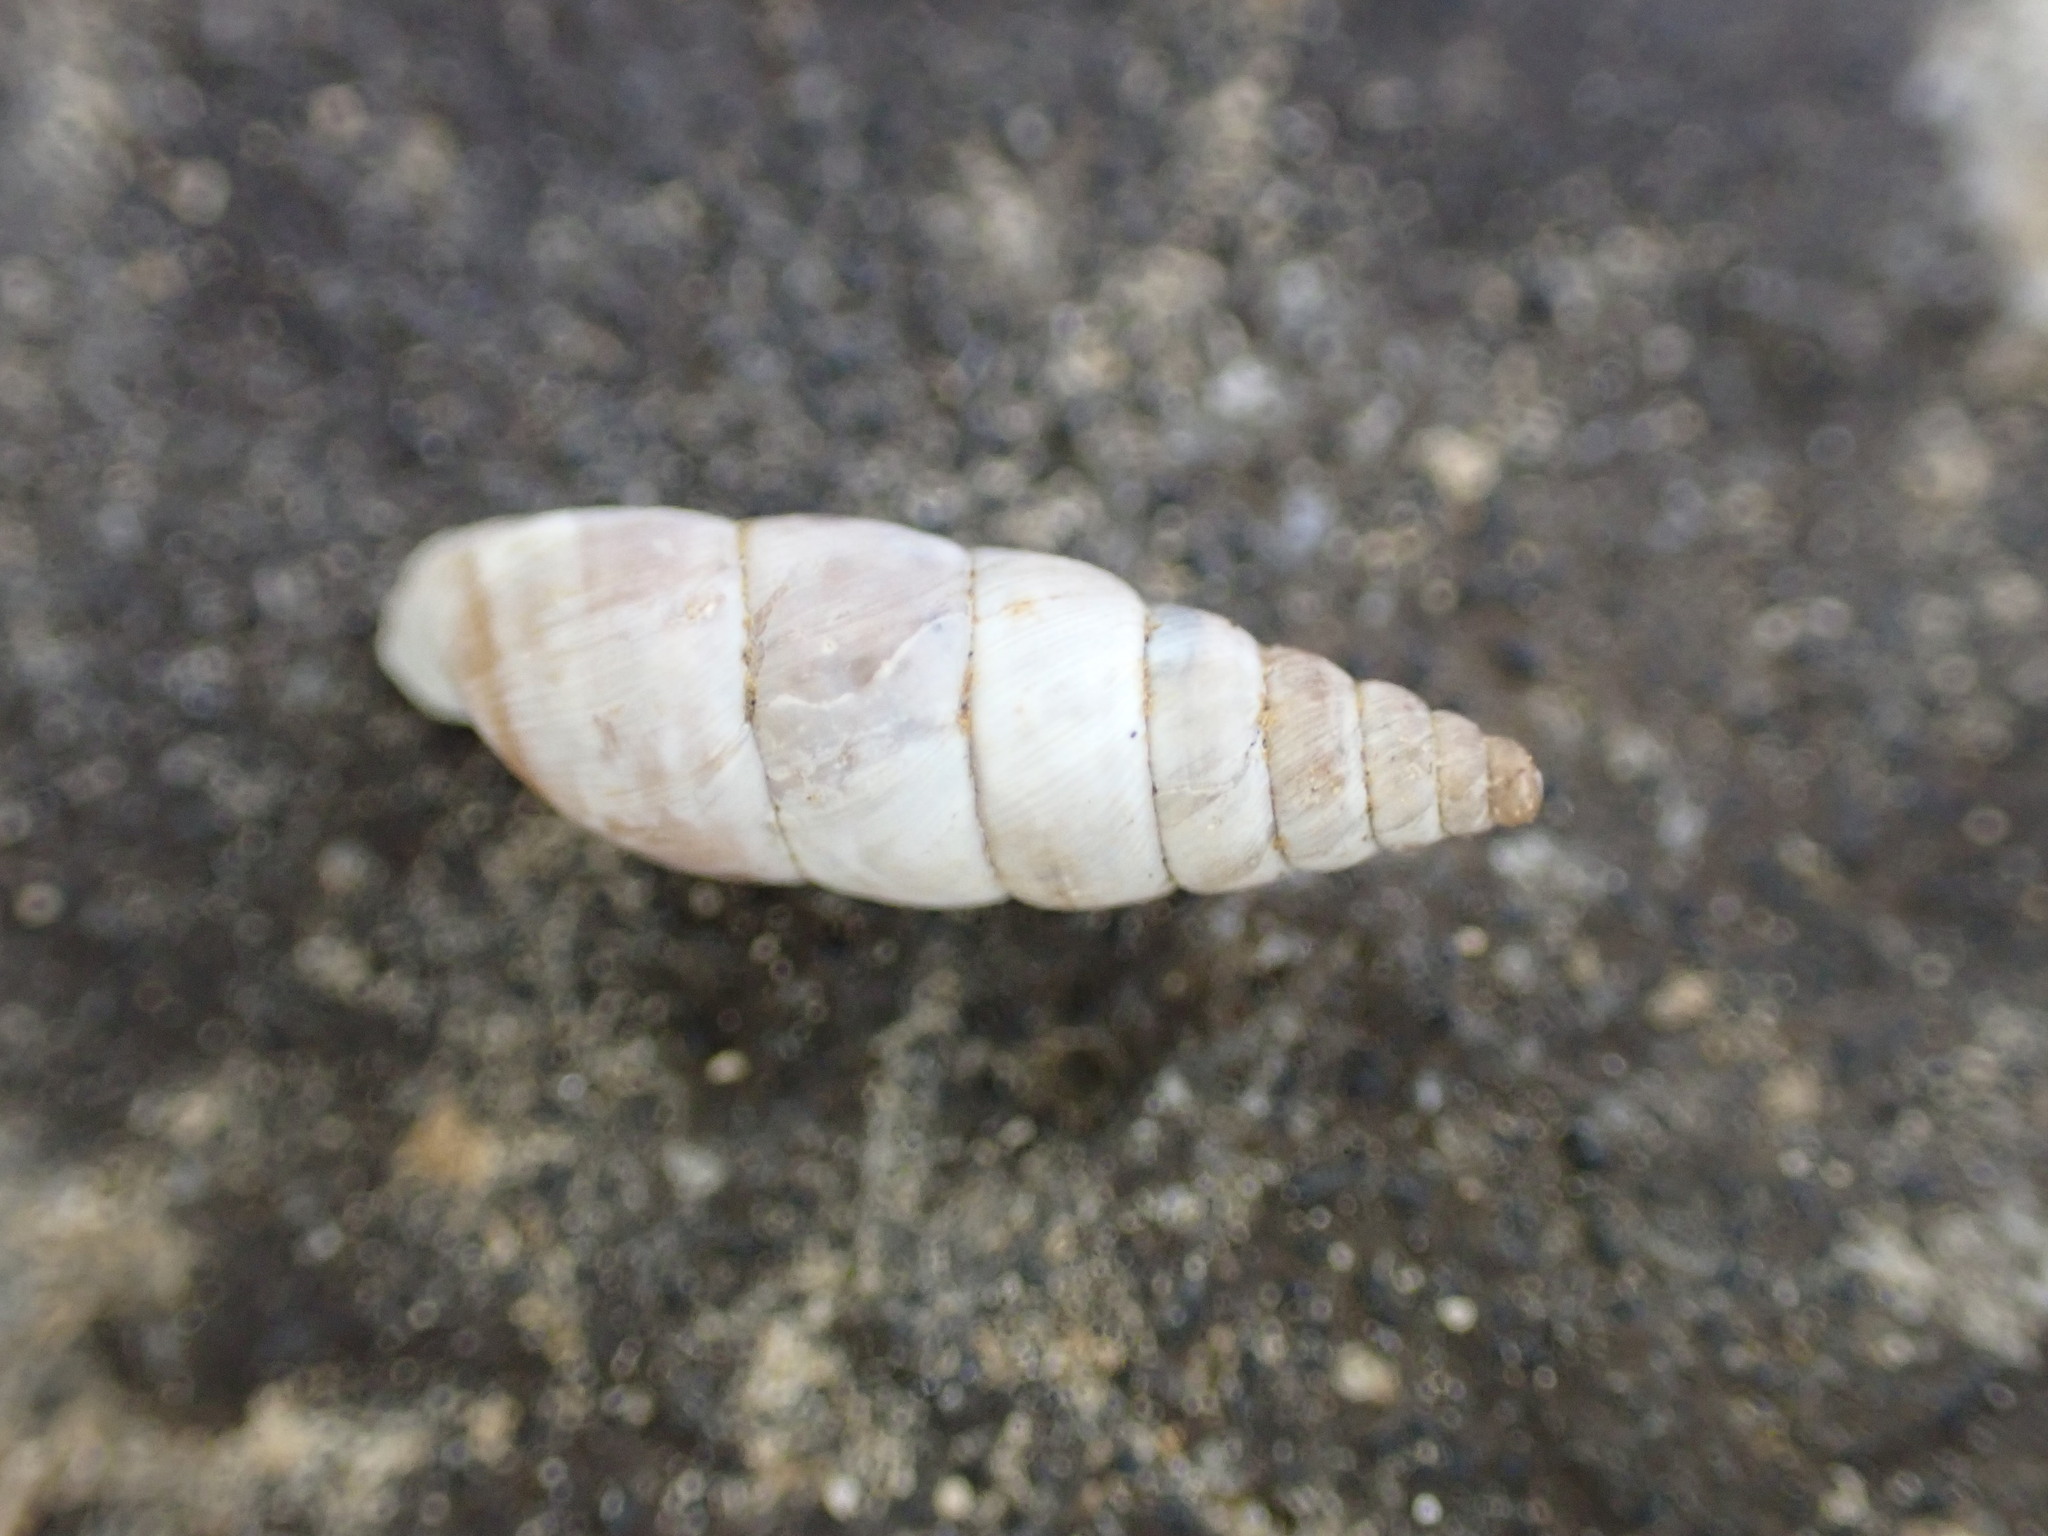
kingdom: Animalia
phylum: Mollusca
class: Gastropoda
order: Stylommatophora
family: Chondrinidae
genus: Solatopupa
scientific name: Solatopupa similis
